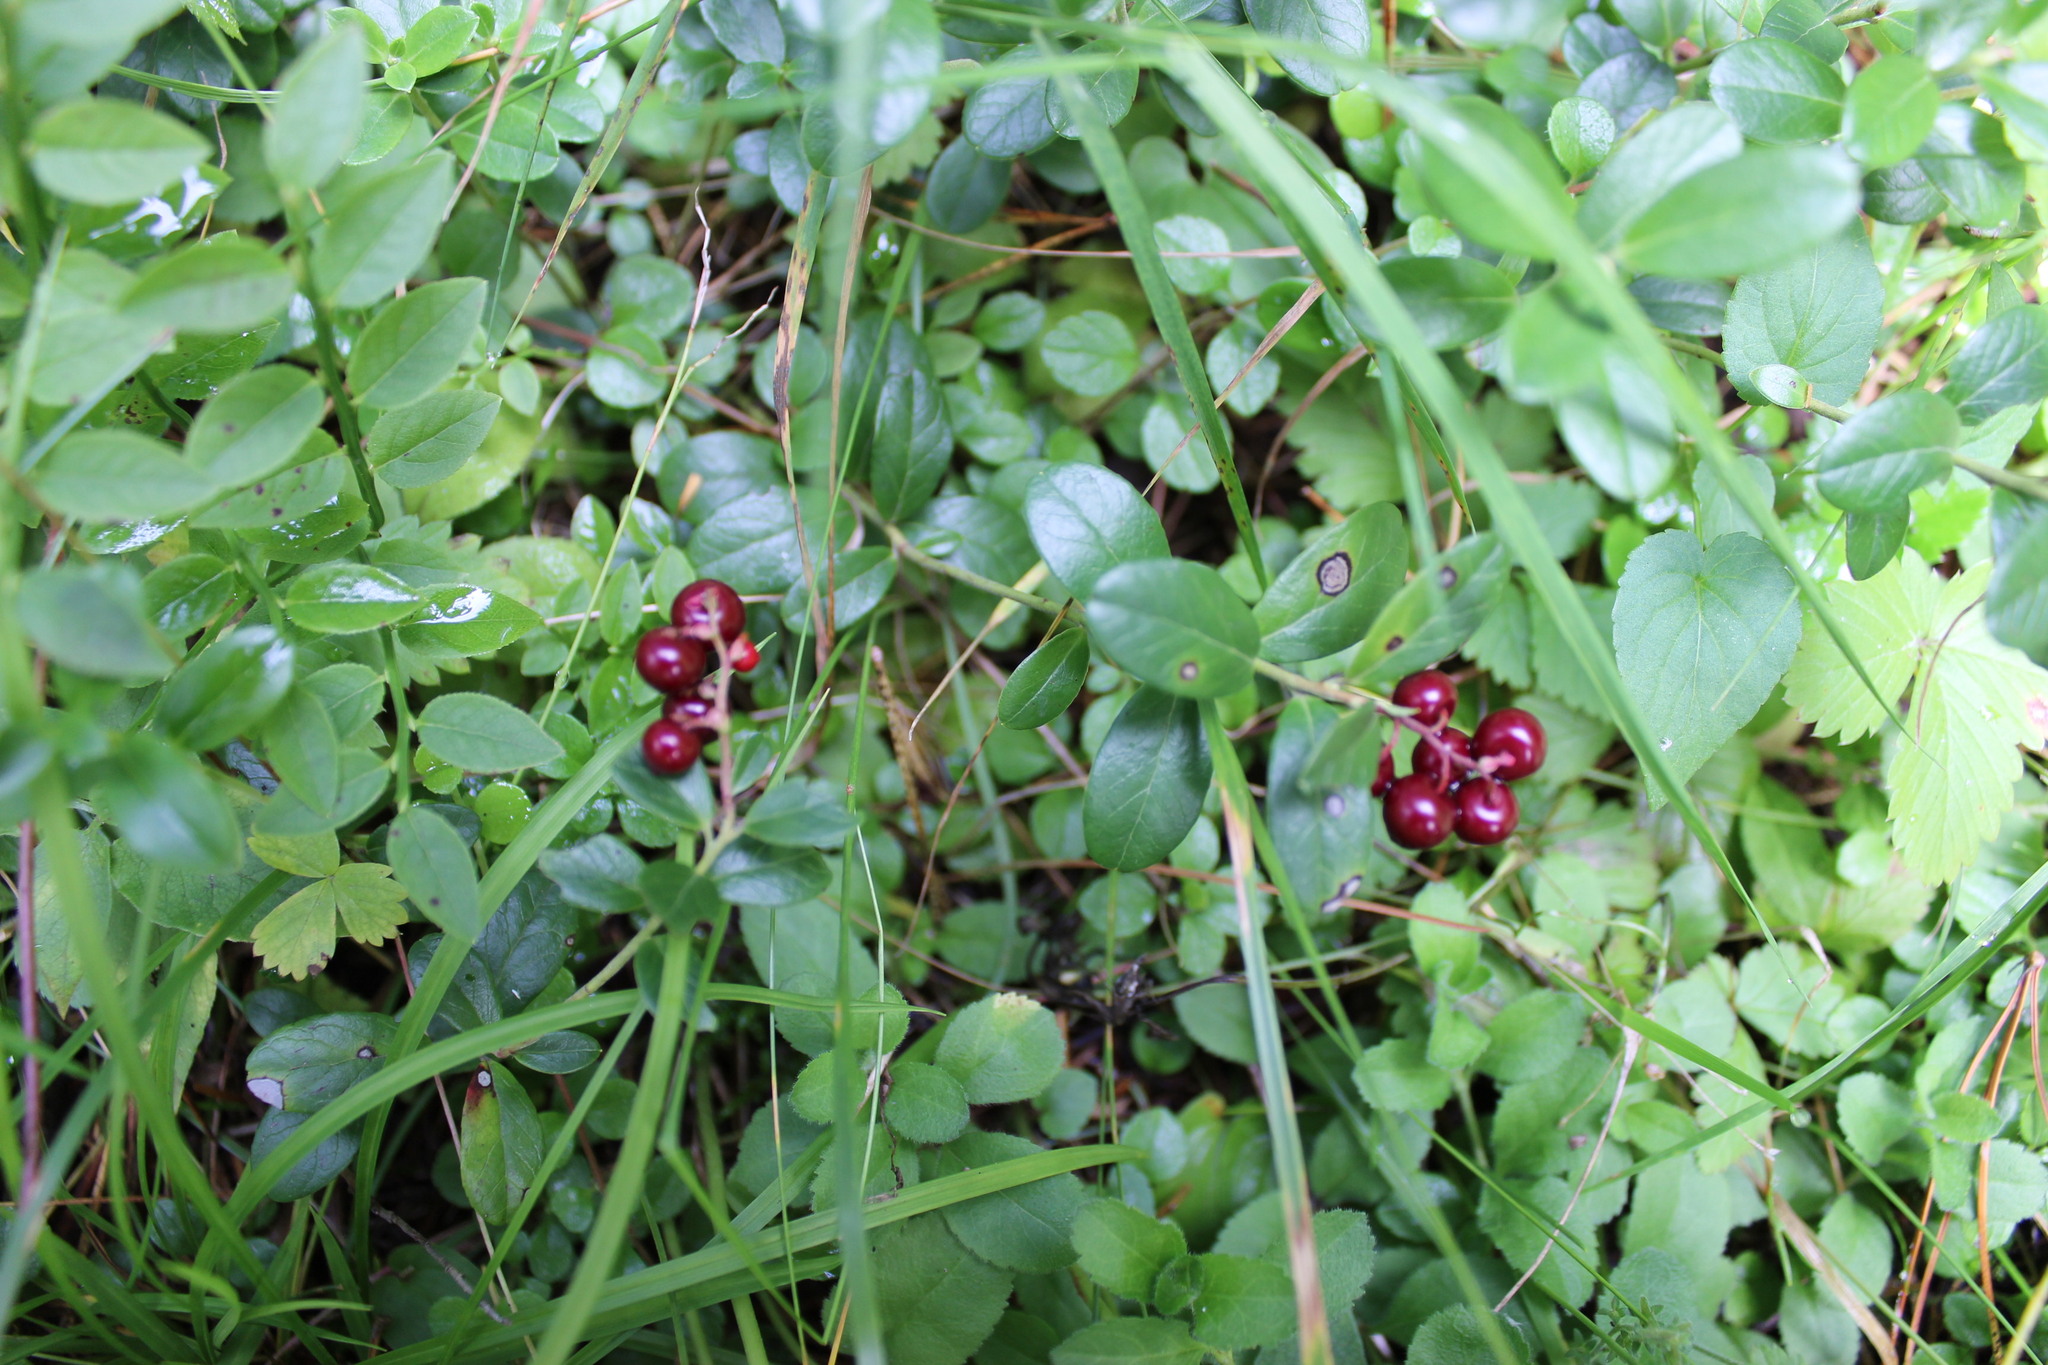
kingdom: Plantae
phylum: Tracheophyta
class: Magnoliopsida
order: Ericales
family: Ericaceae
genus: Vaccinium
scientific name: Vaccinium vitis-idaea
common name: Cowberry
